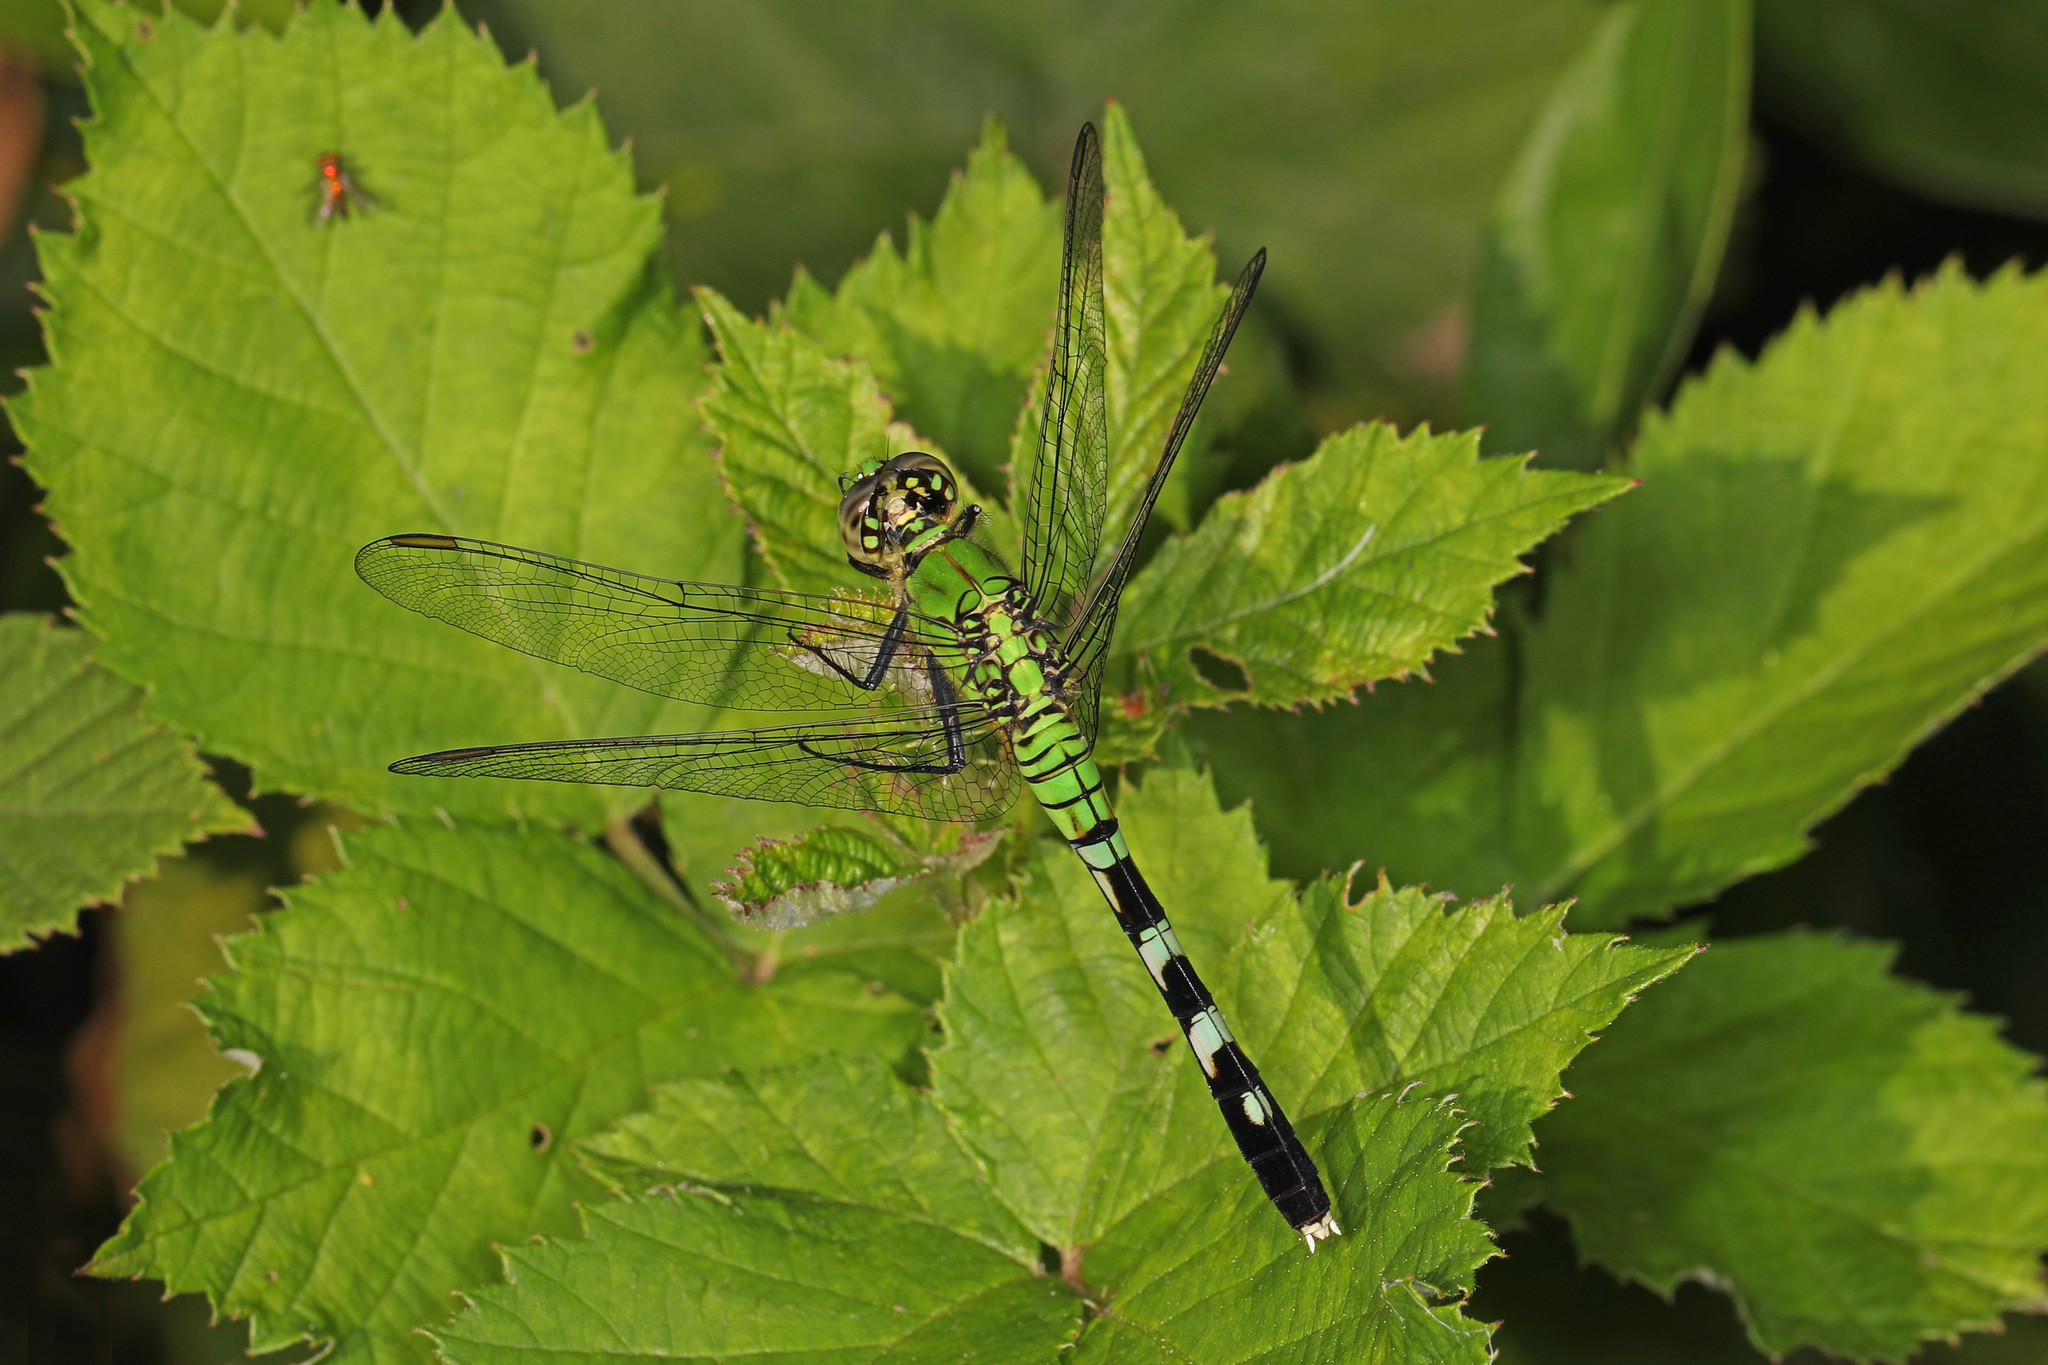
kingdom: Animalia
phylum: Arthropoda
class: Insecta
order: Odonata
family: Libellulidae
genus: Erythemis
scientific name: Erythemis simplicicollis
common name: Eastern pondhawk
